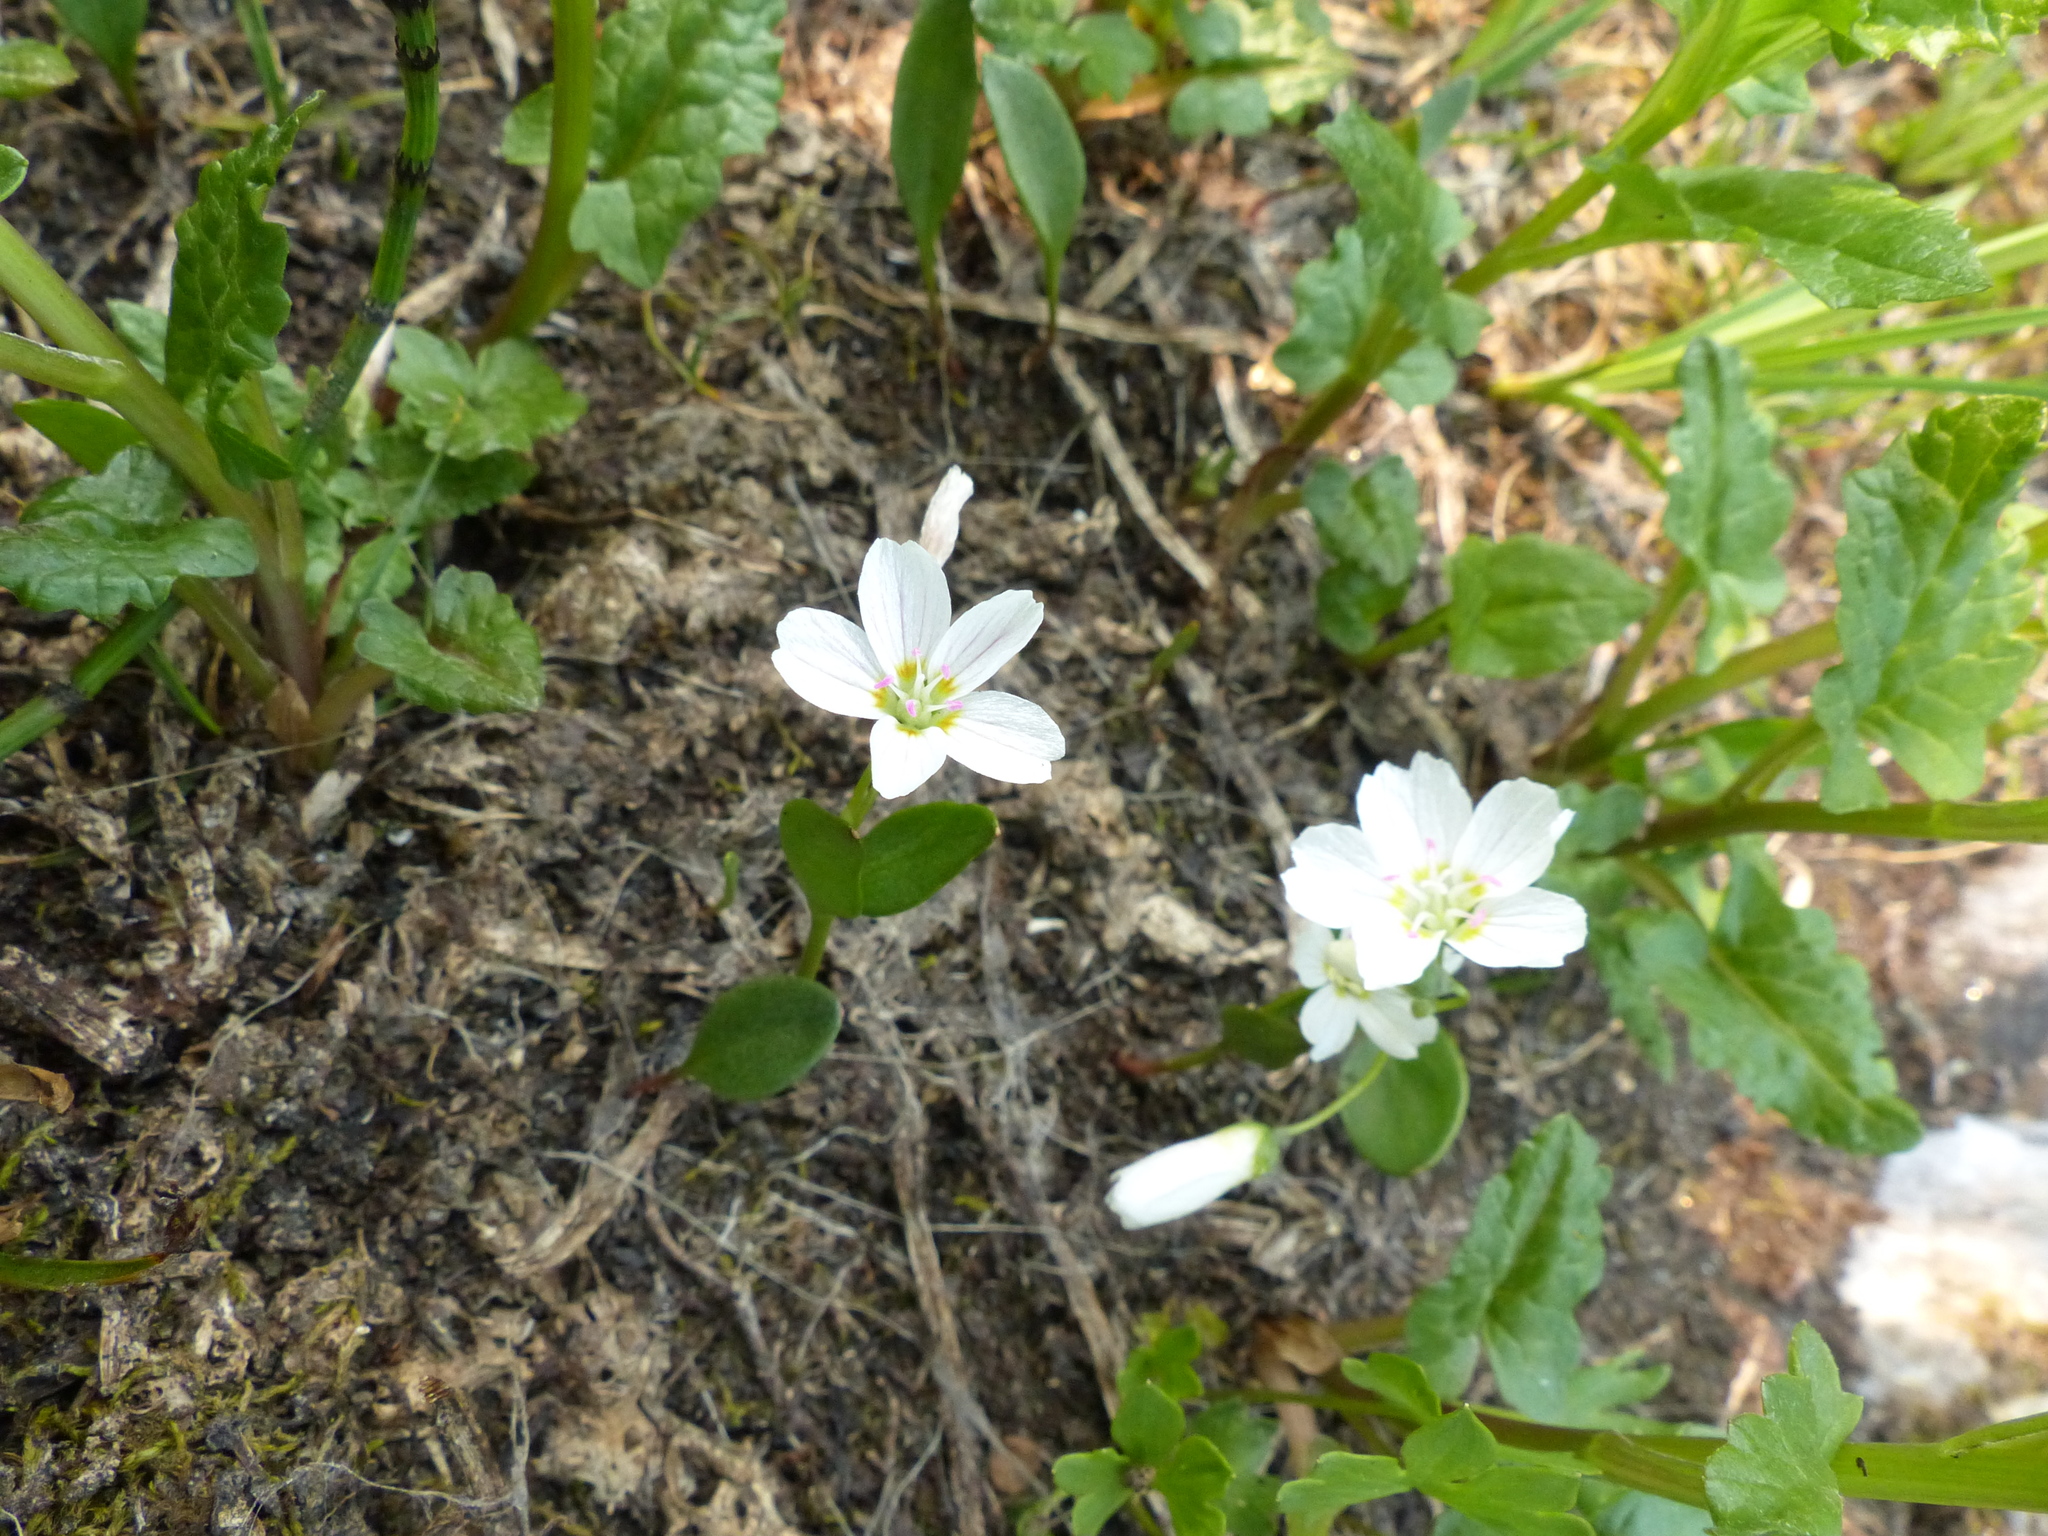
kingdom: Plantae
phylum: Tracheophyta
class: Magnoliopsida
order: Caryophyllales
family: Montiaceae
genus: Claytonia
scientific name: Claytonia lanceolata
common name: Western spring-beauty
